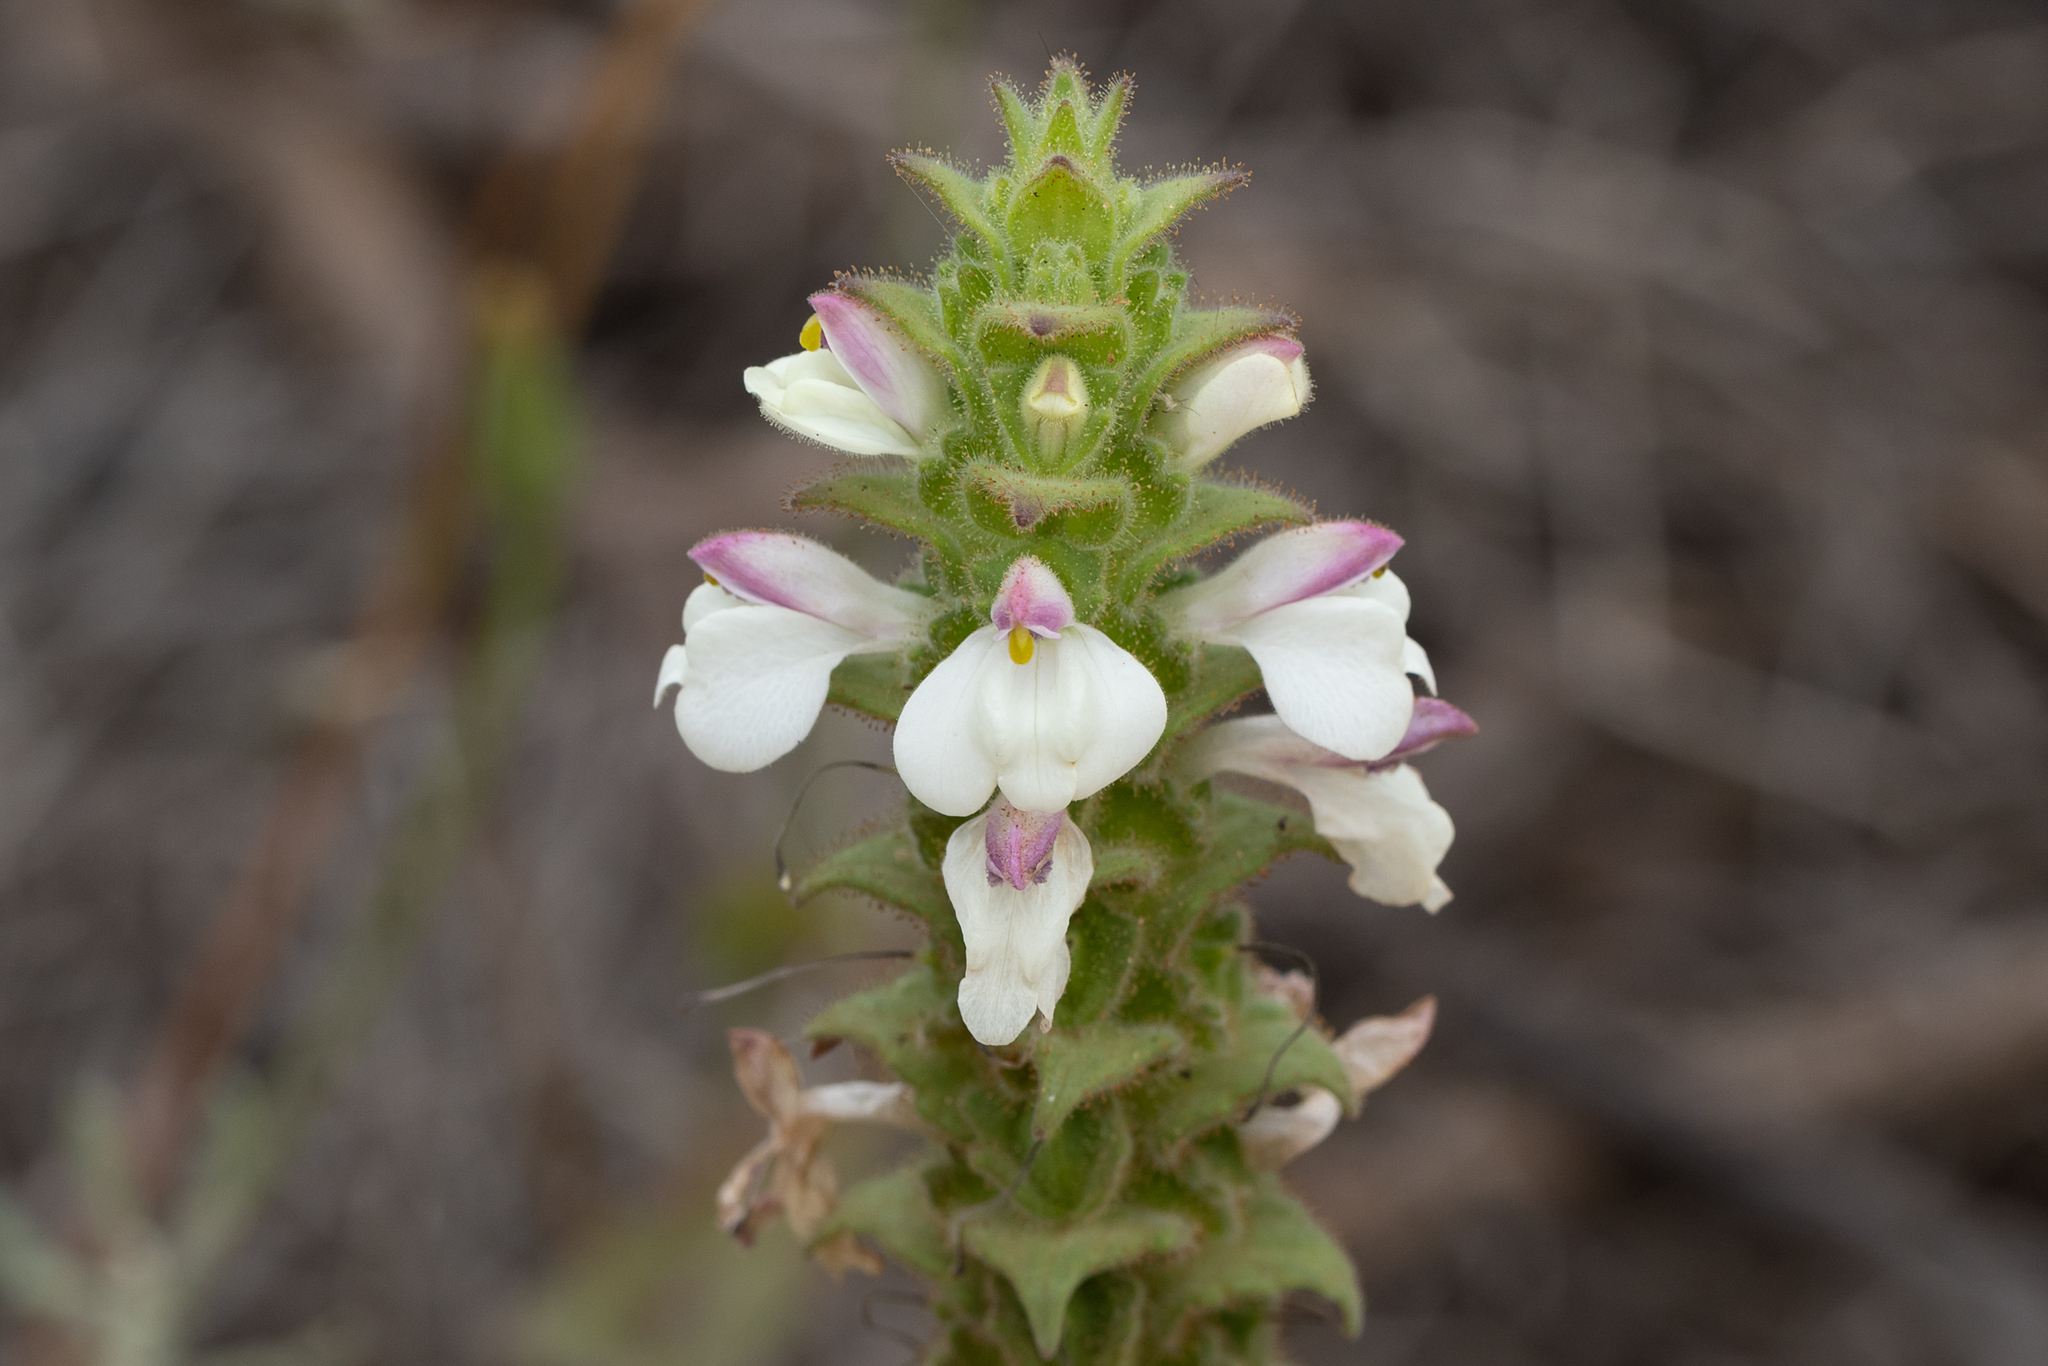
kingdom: Plantae
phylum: Tracheophyta
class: Magnoliopsida
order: Lamiales
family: Orobanchaceae
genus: Bellardia
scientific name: Bellardia trixago
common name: Mediterranean lineseed
